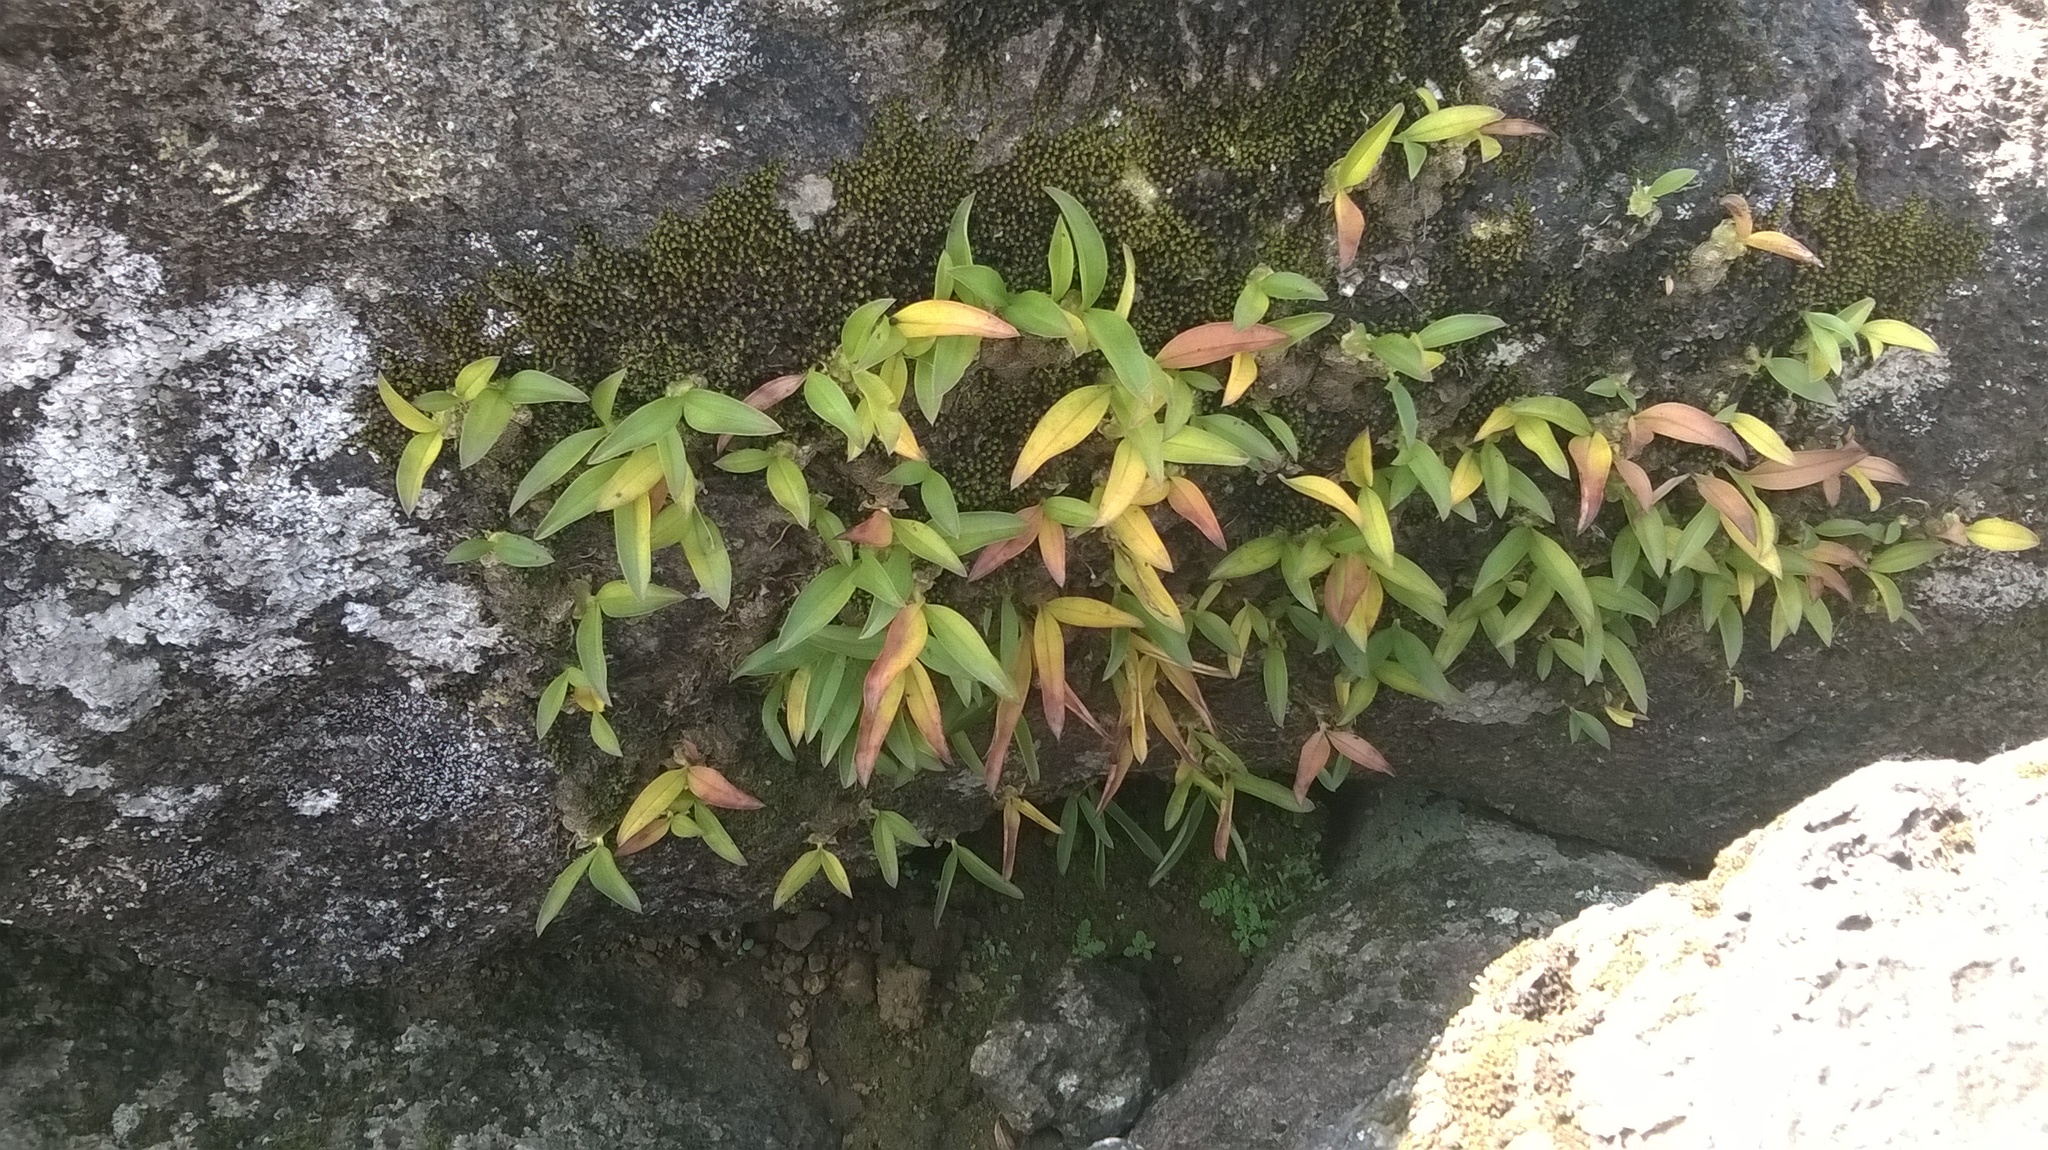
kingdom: Plantae
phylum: Tracheophyta
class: Liliopsida
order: Asparagales
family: Orchidaceae
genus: Porpax
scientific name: Porpax braccata
